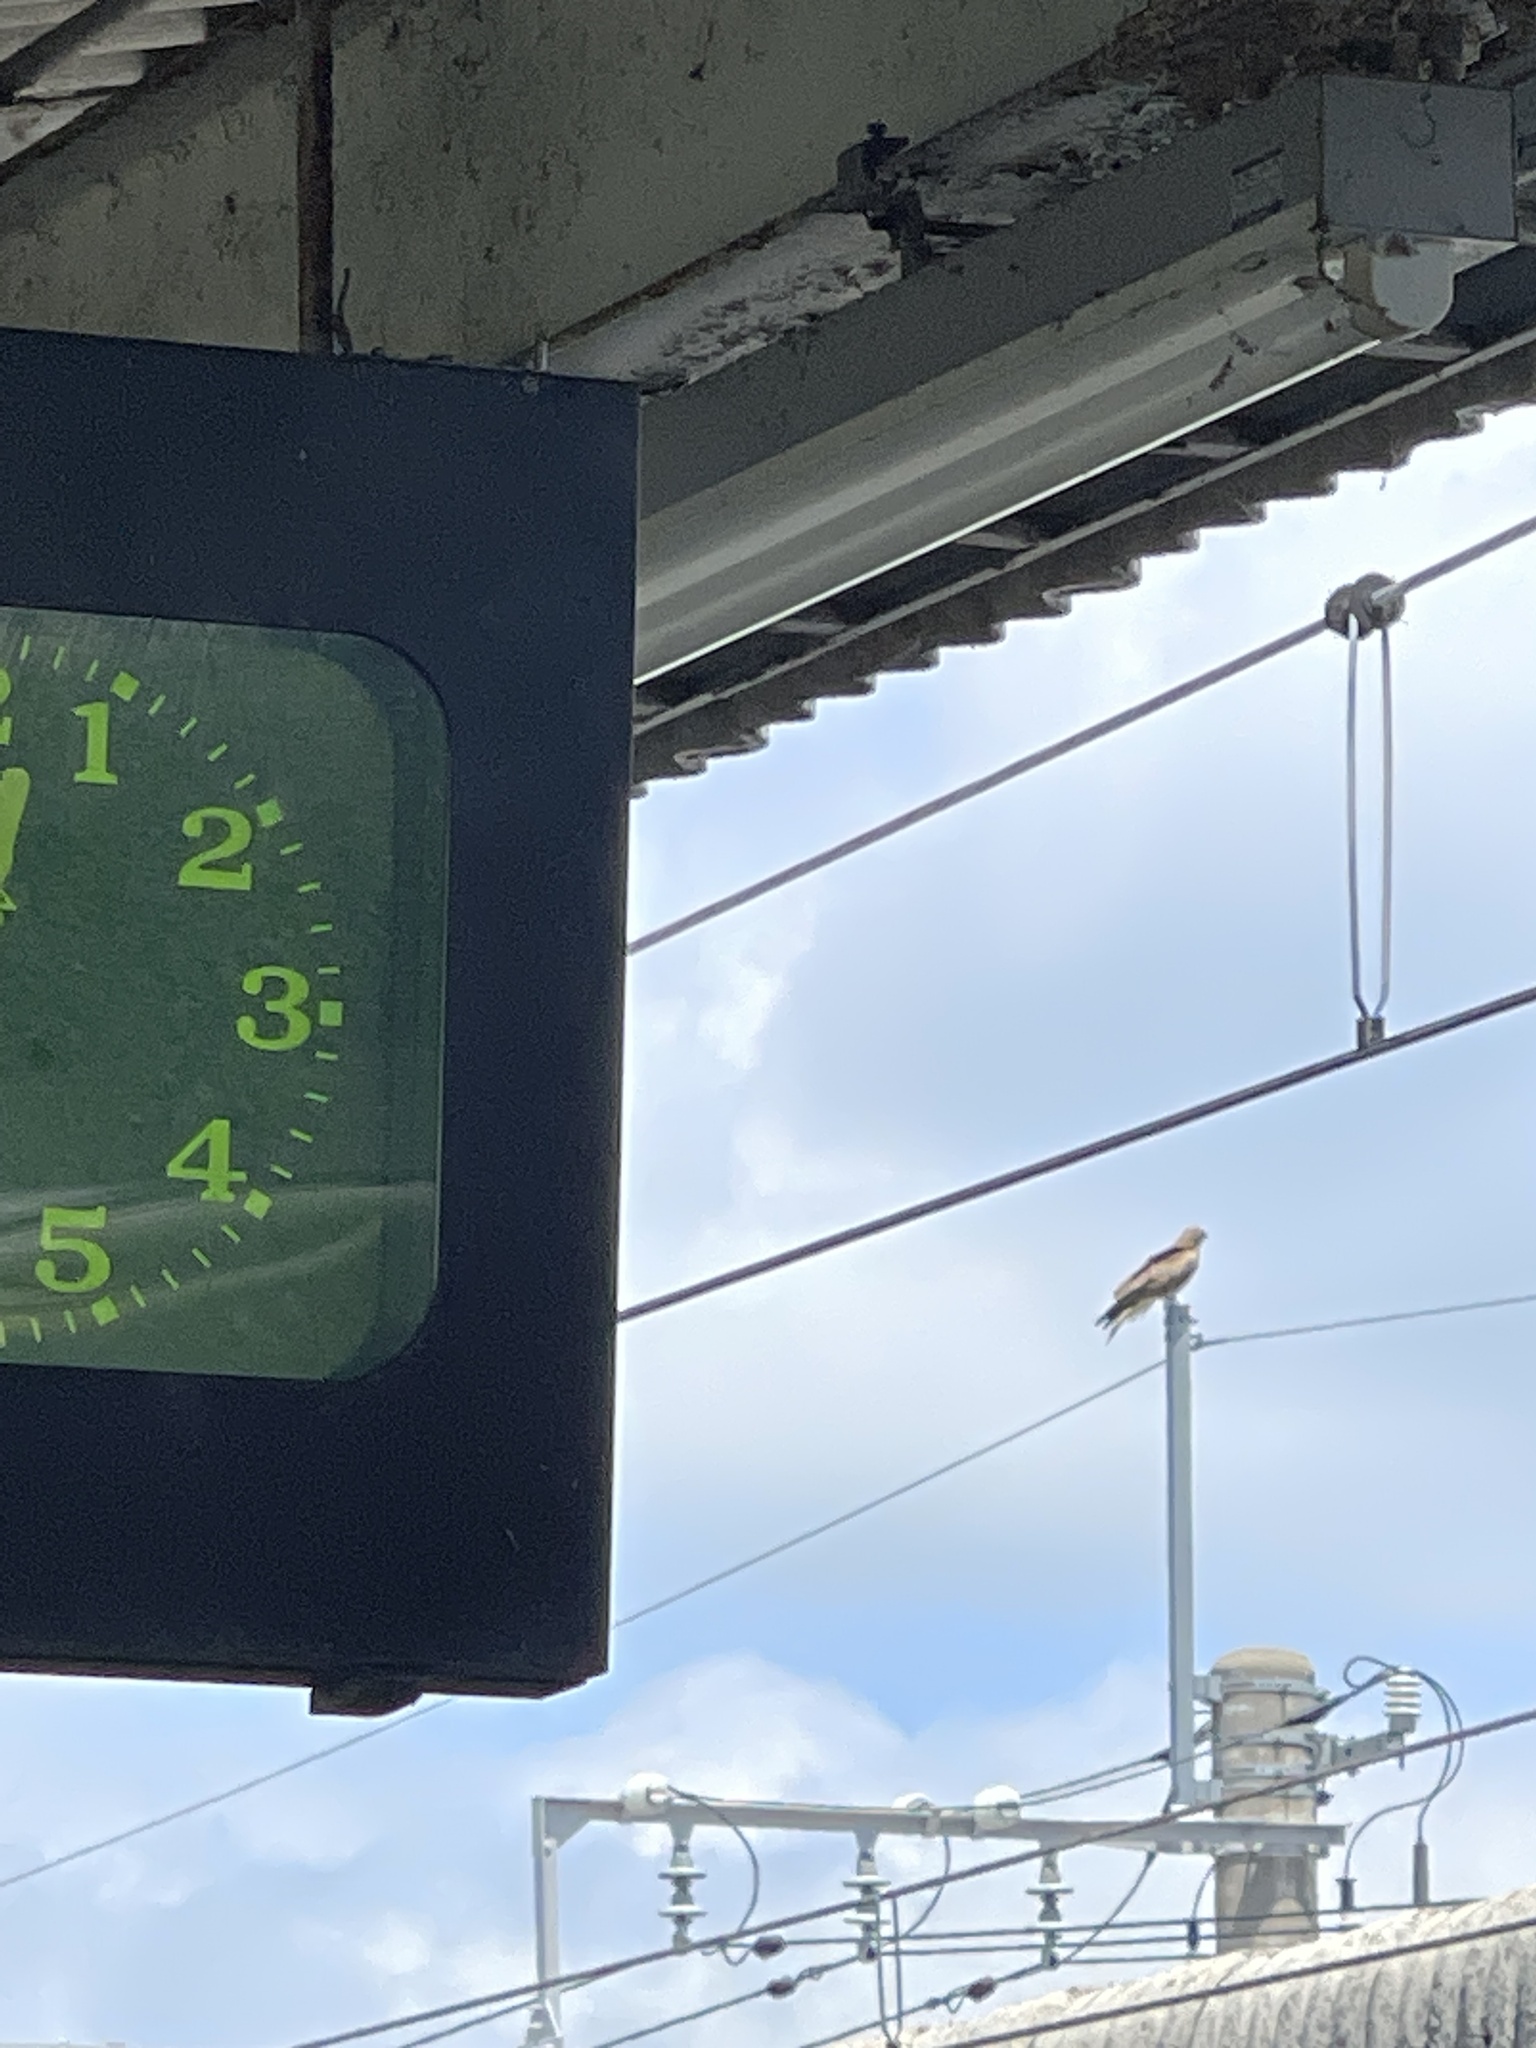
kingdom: Animalia
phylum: Chordata
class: Aves
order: Accipitriformes
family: Accipitridae
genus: Milvus
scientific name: Milvus migrans
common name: Black kite
